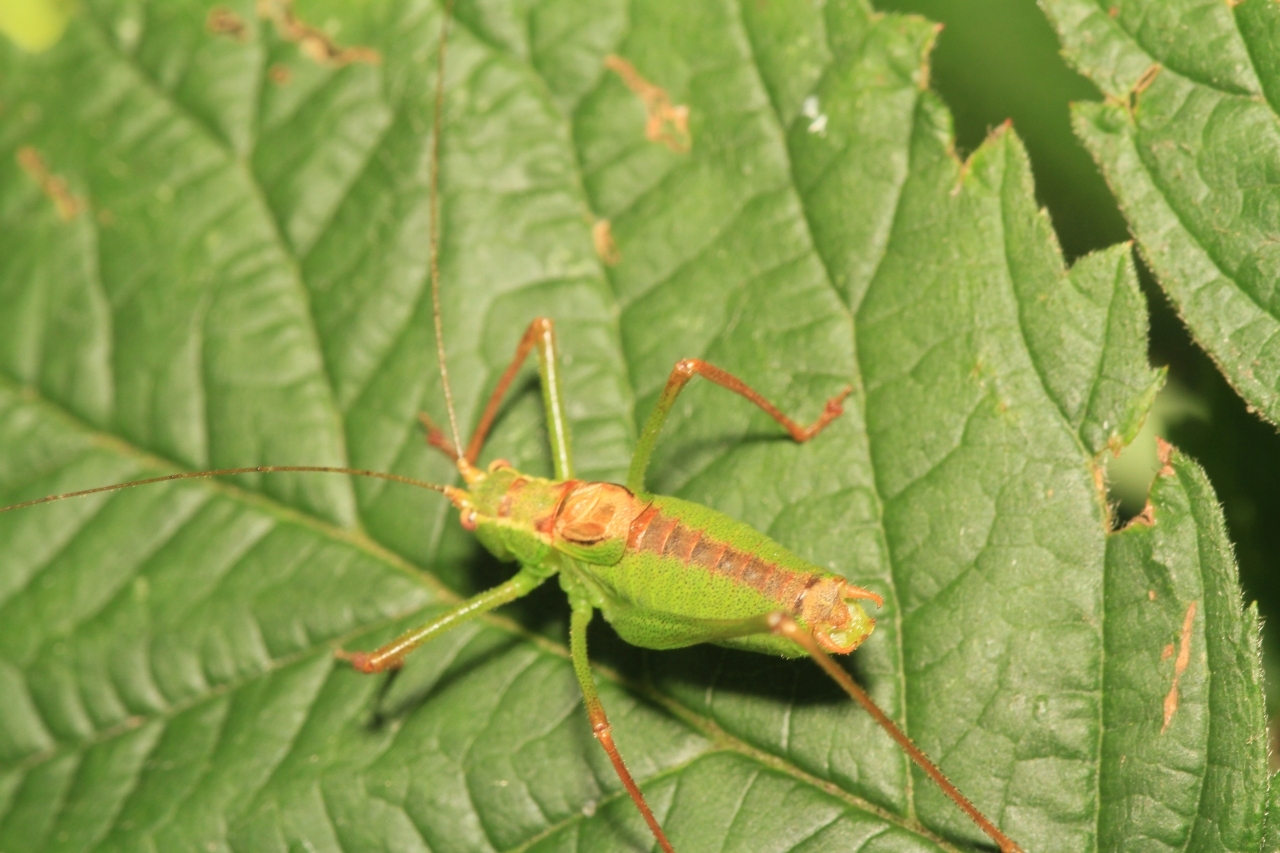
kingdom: Animalia
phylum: Arthropoda
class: Insecta
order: Orthoptera
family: Tettigoniidae
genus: Leptophyes
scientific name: Leptophyes punctatissima
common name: Speckled bush-cricket
